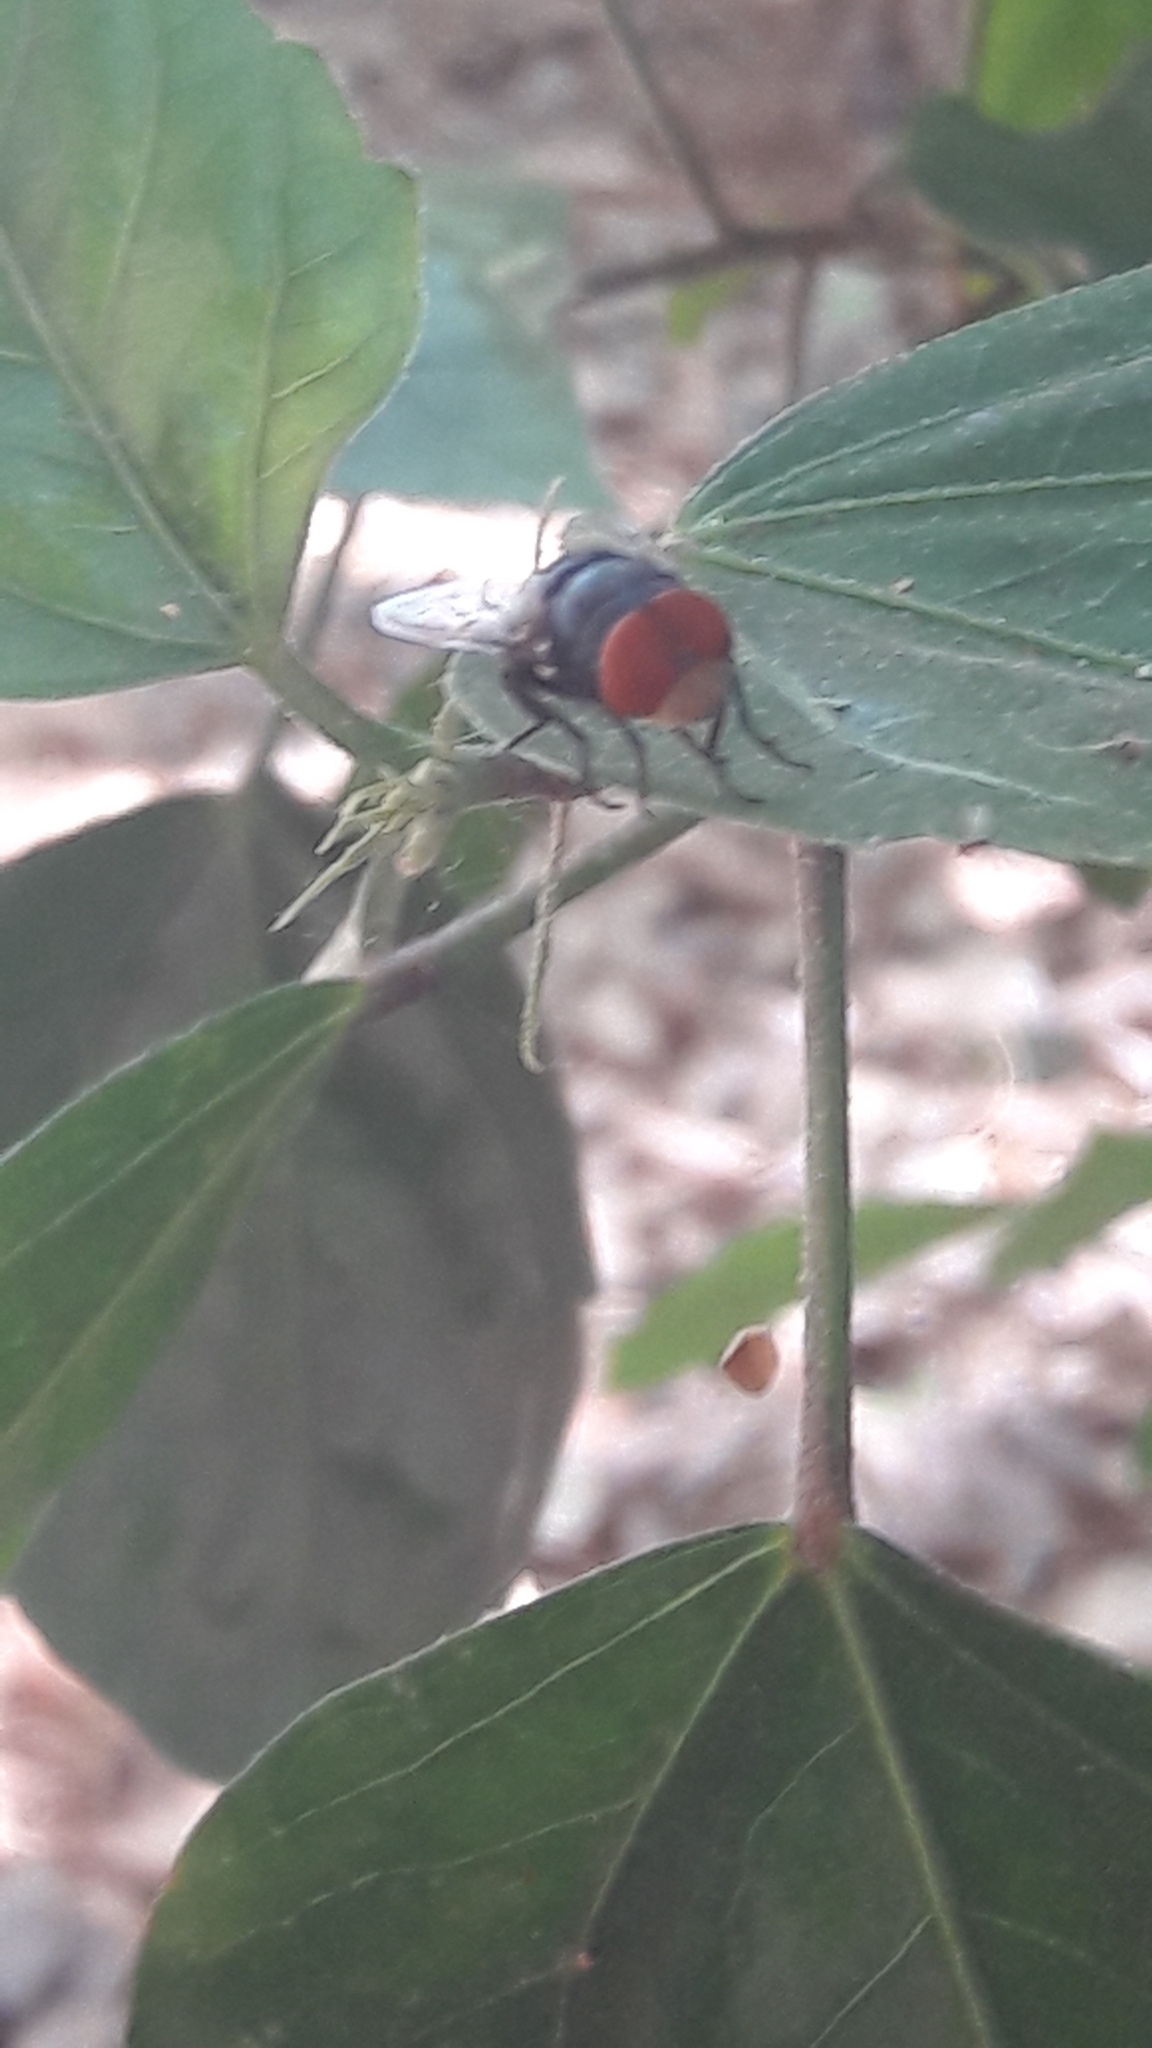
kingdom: Animalia
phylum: Arthropoda
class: Insecta
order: Diptera
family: Calliphoridae
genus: Chrysomya
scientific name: Chrysomya megacephala
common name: Blow fly
